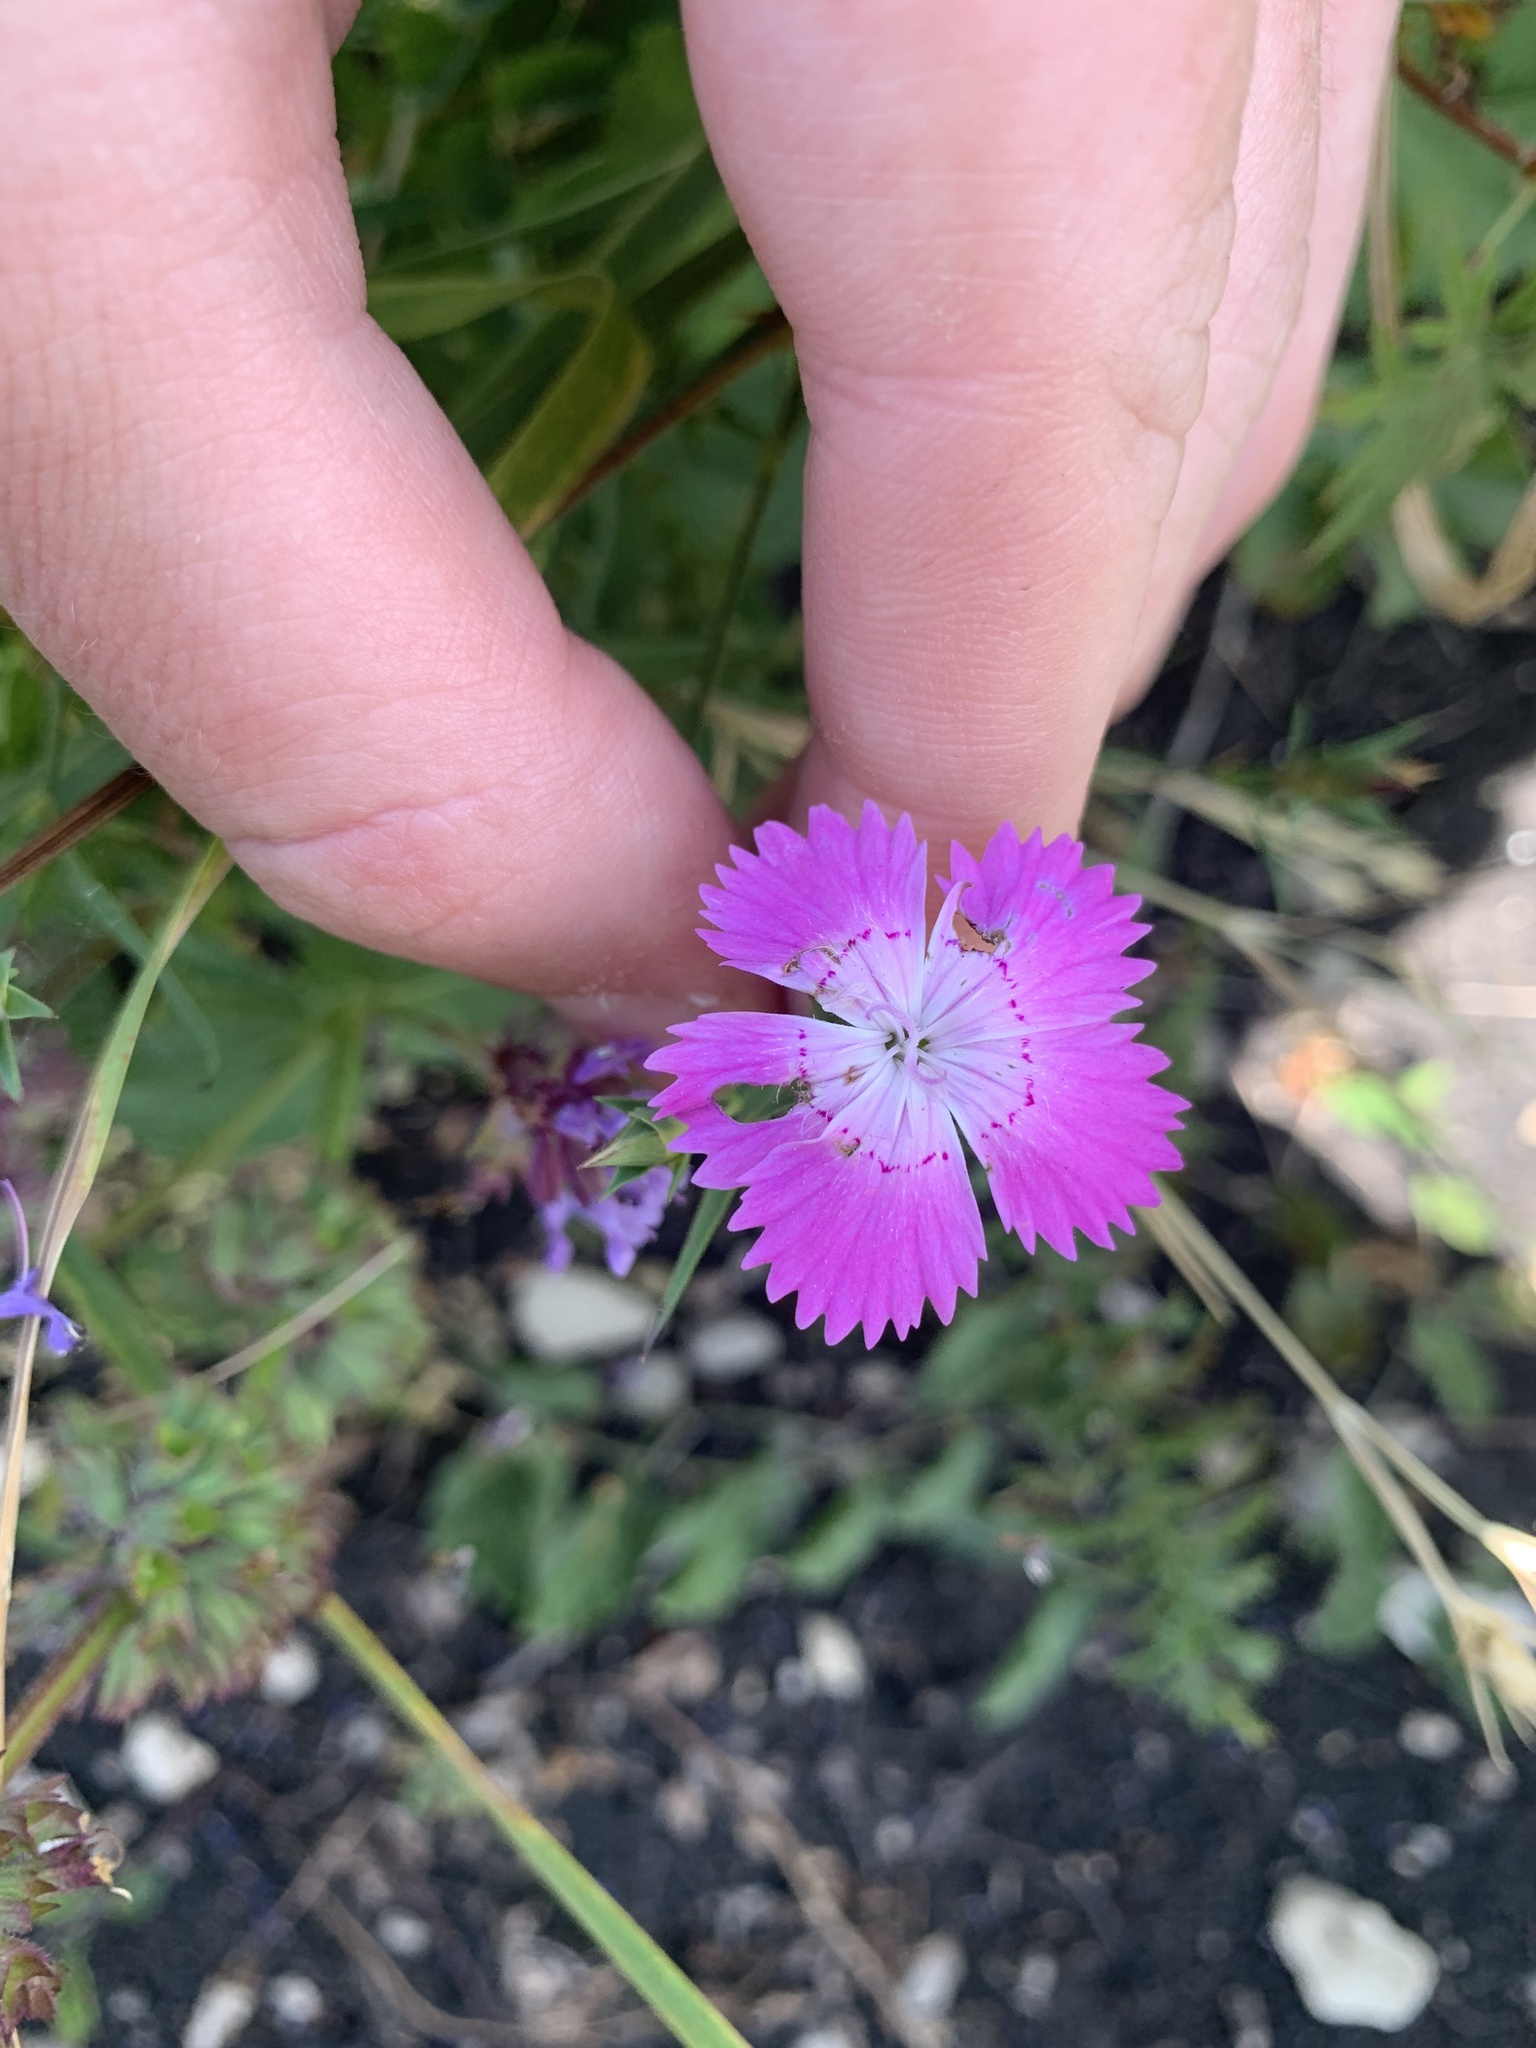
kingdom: Plantae
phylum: Tracheophyta
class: Magnoliopsida
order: Caryophyllales
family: Caryophyllaceae
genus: Dianthus
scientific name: Dianthus caucaseus
